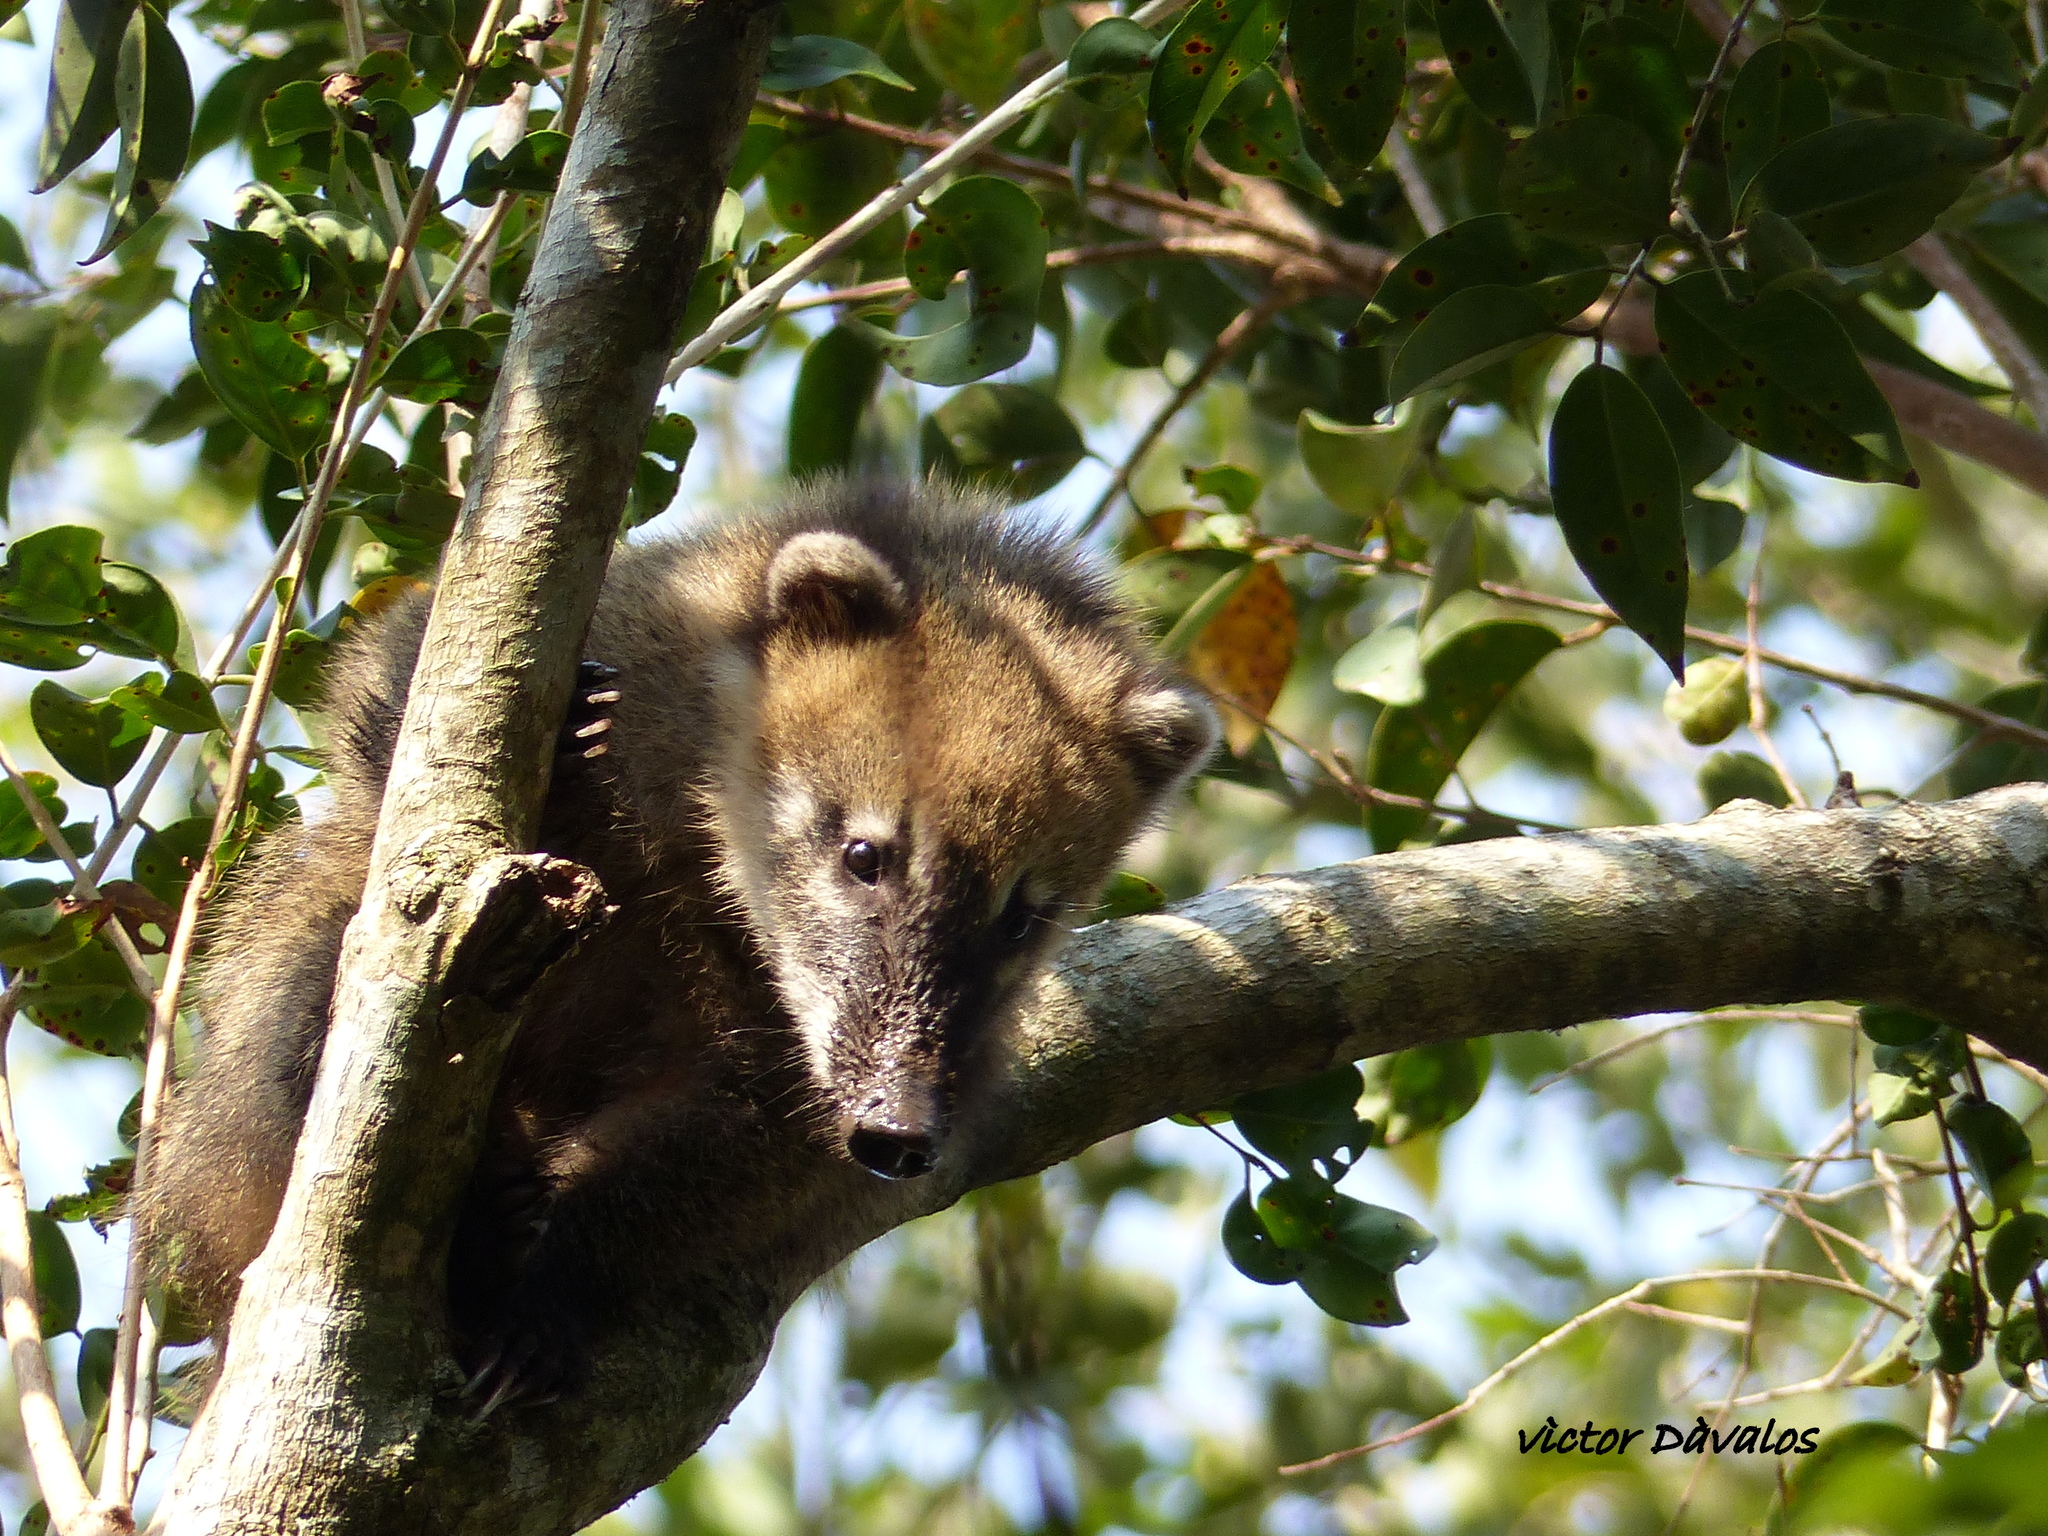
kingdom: Animalia
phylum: Chordata
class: Mammalia
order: Carnivora
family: Procyonidae
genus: Nasua
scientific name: Nasua nasua
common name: South american coati
